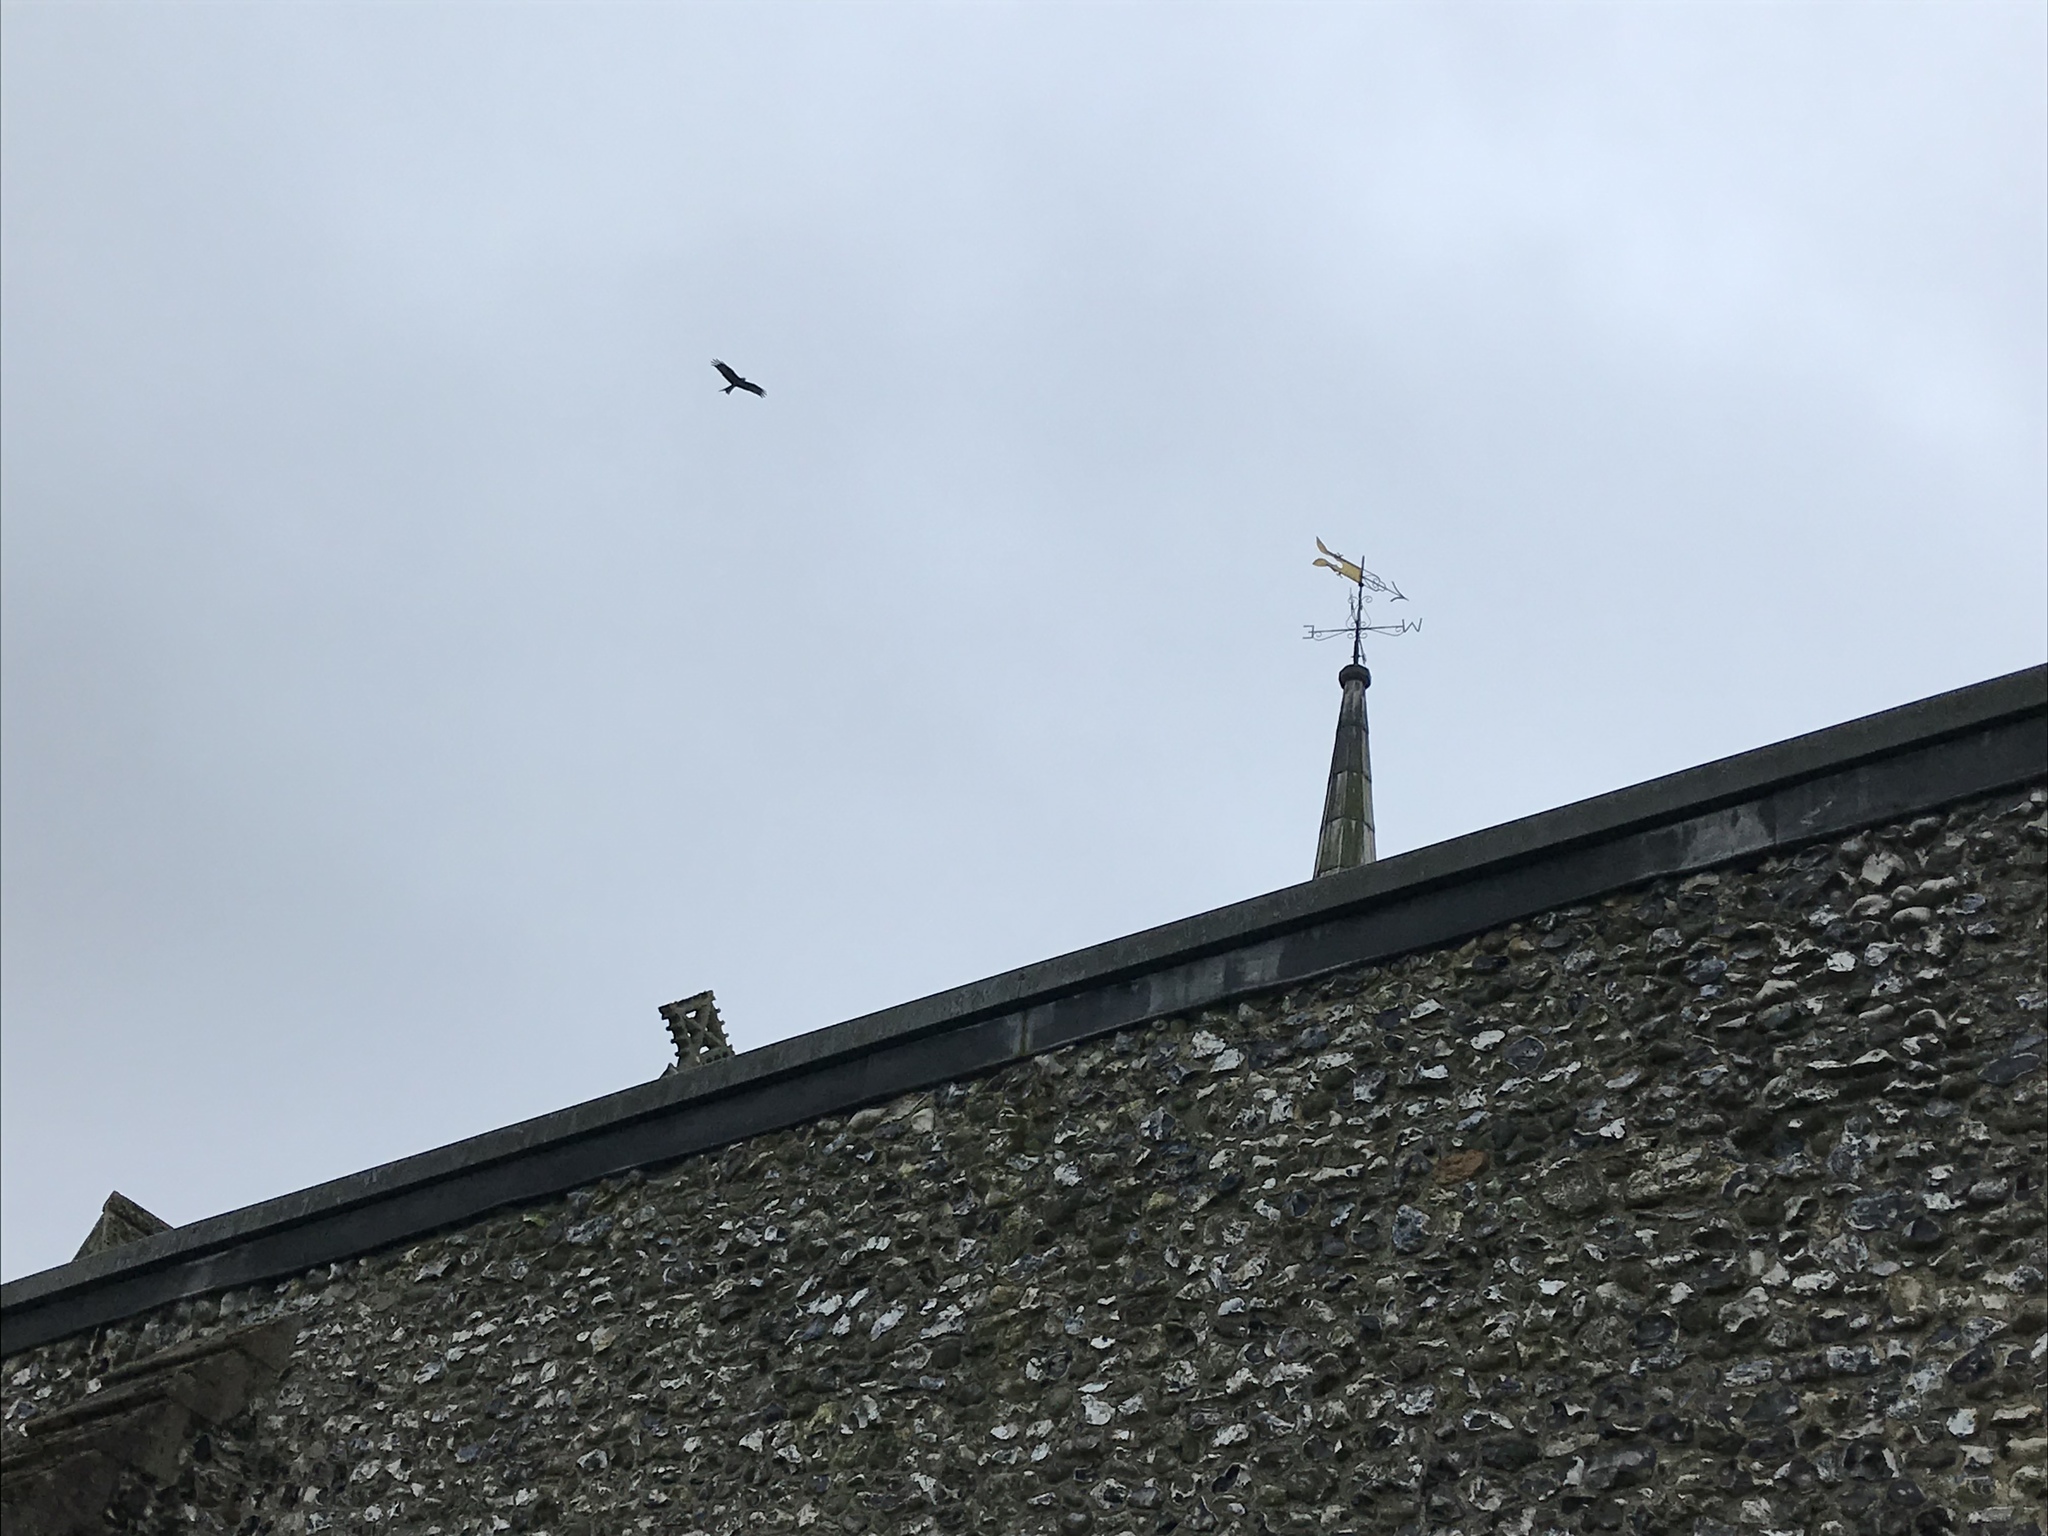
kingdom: Animalia
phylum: Chordata
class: Aves
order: Accipitriformes
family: Accipitridae
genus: Milvus
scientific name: Milvus milvus
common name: Red kite
